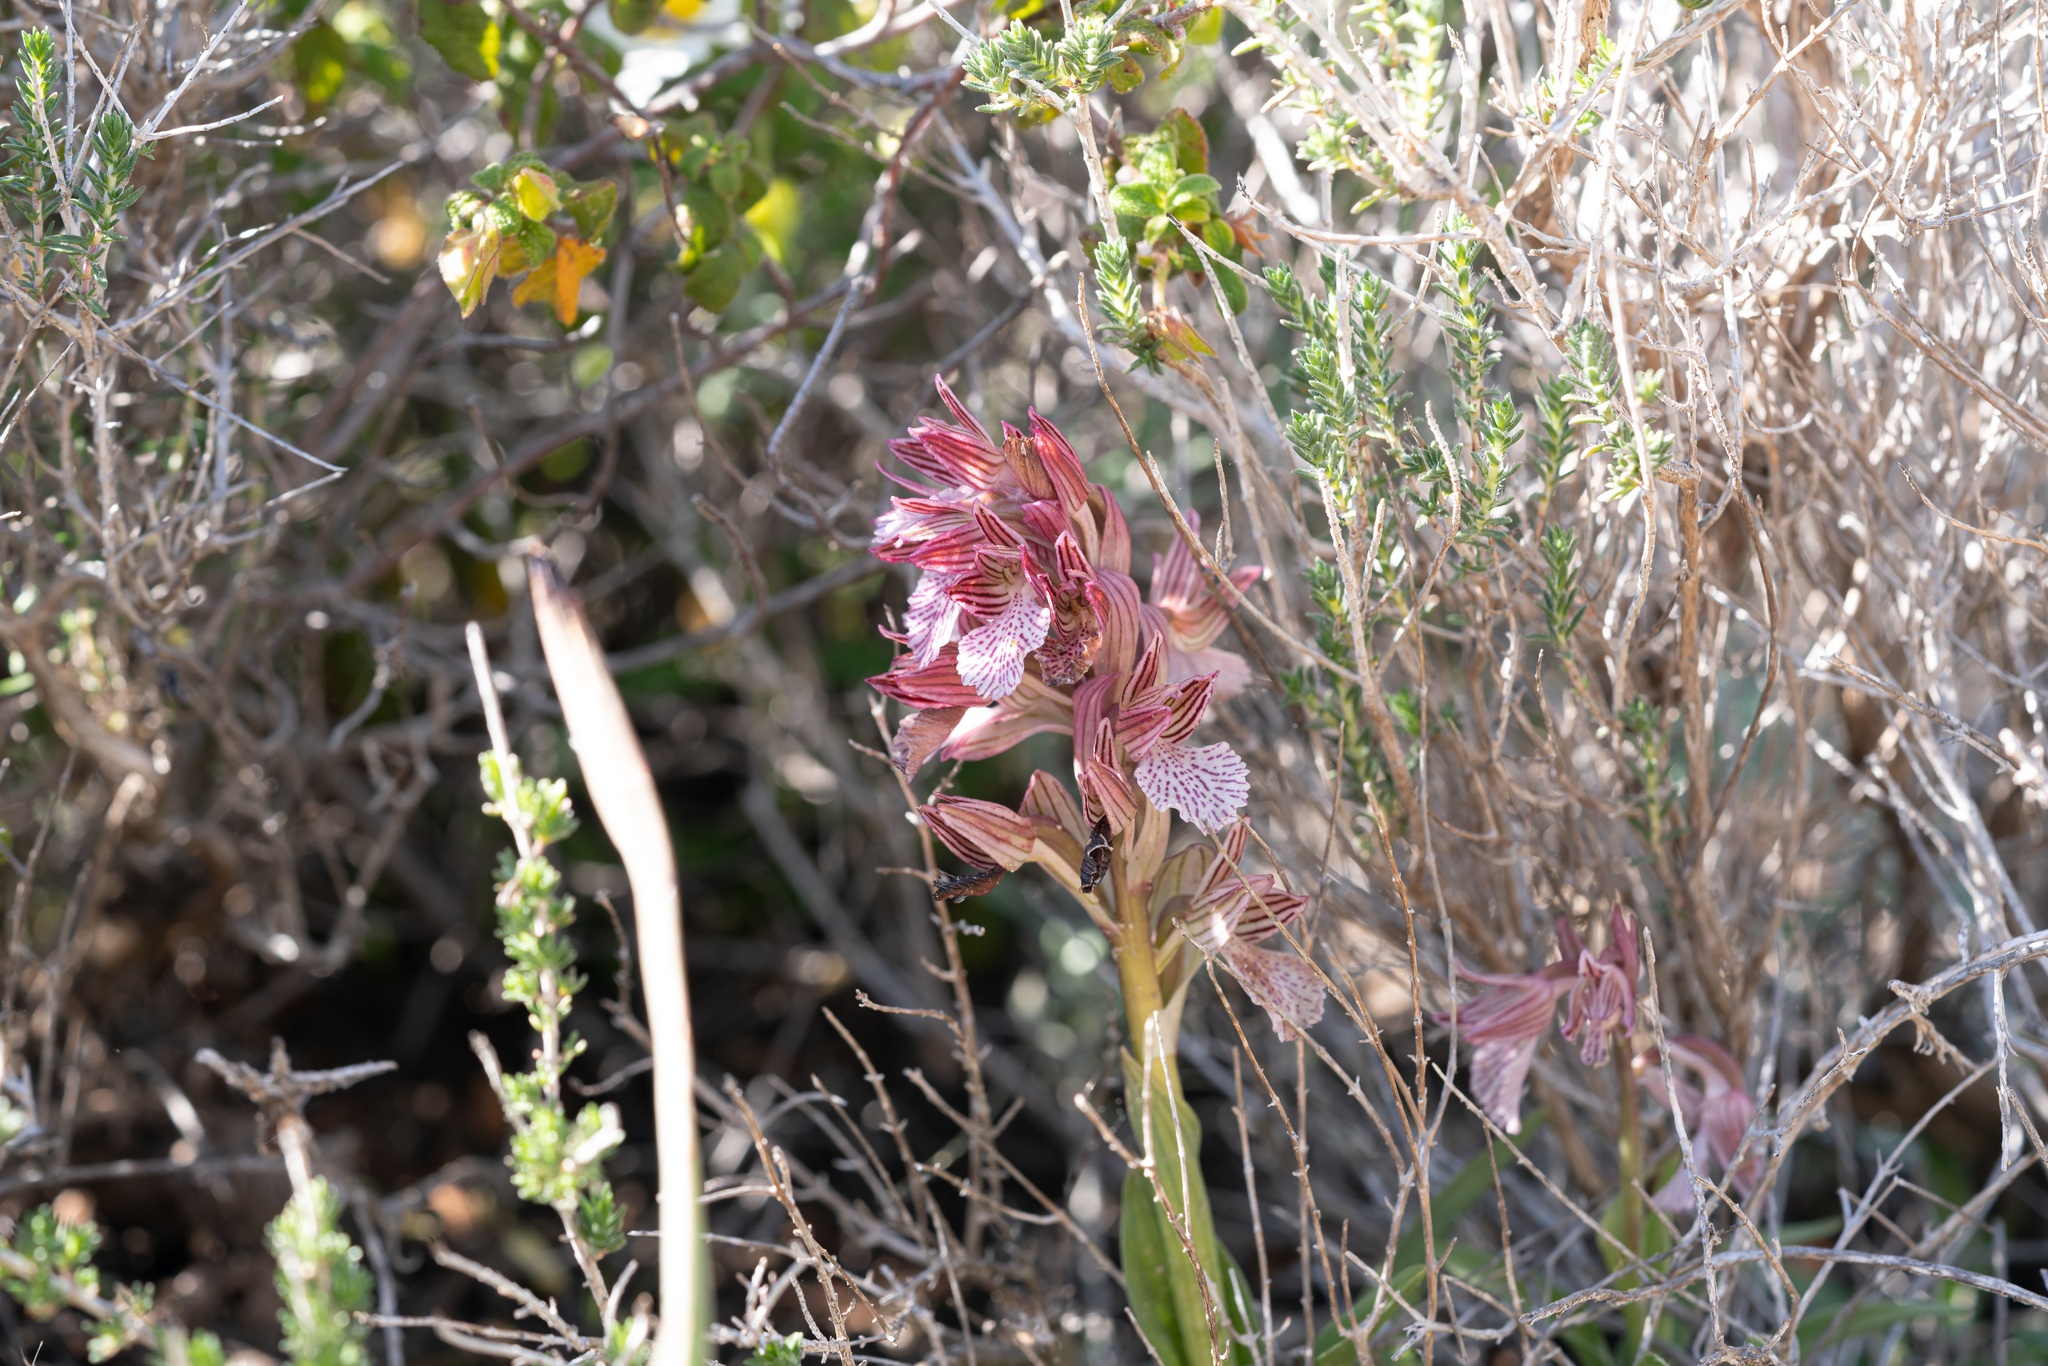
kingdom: Plantae
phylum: Tracheophyta
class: Liliopsida
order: Asparagales
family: Orchidaceae
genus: Anacamptis
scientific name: Anacamptis papilionacea
